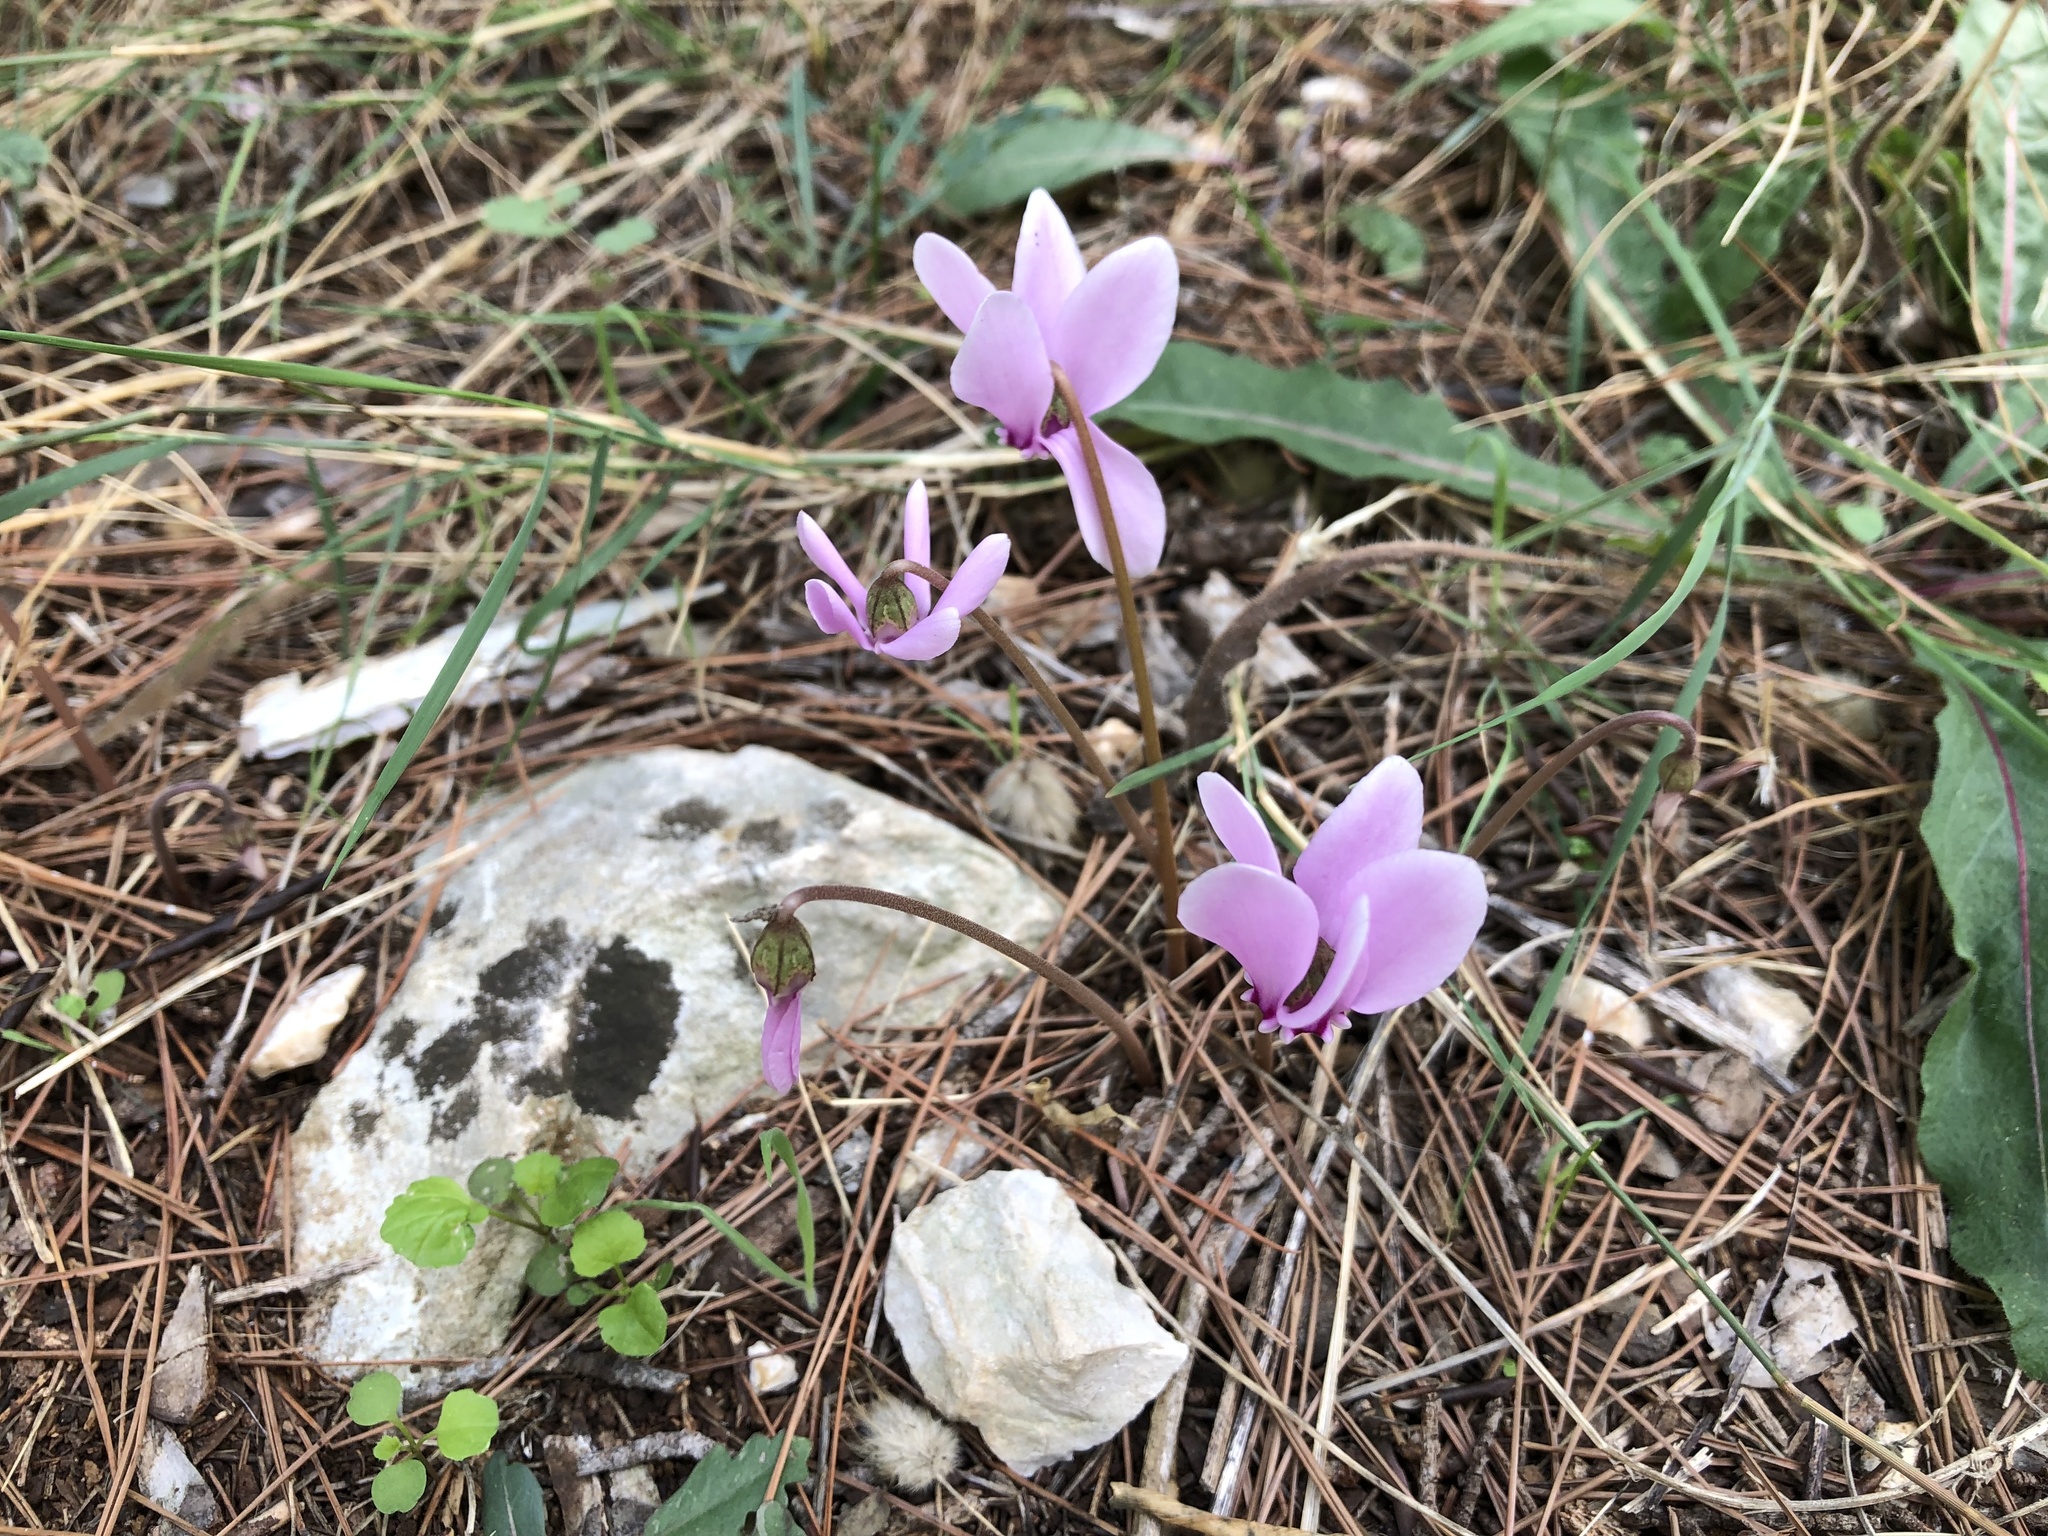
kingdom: Plantae
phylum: Tracheophyta
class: Magnoliopsida
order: Ericales
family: Primulaceae
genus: Cyclamen
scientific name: Cyclamen hederifolium
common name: Sowbread
